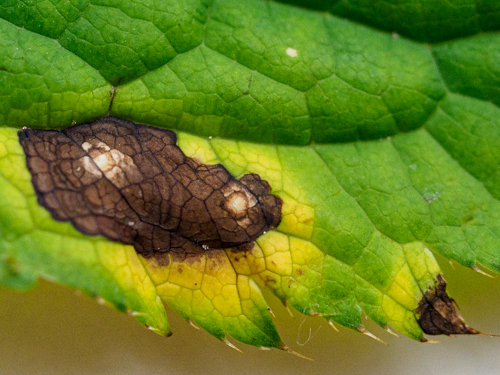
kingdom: Fungi
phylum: Ascomycota
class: Dothideomycetes
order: Mycosphaerellales
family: Mycosphaerellaceae
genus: Filiella
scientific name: Filiella pastinacae
